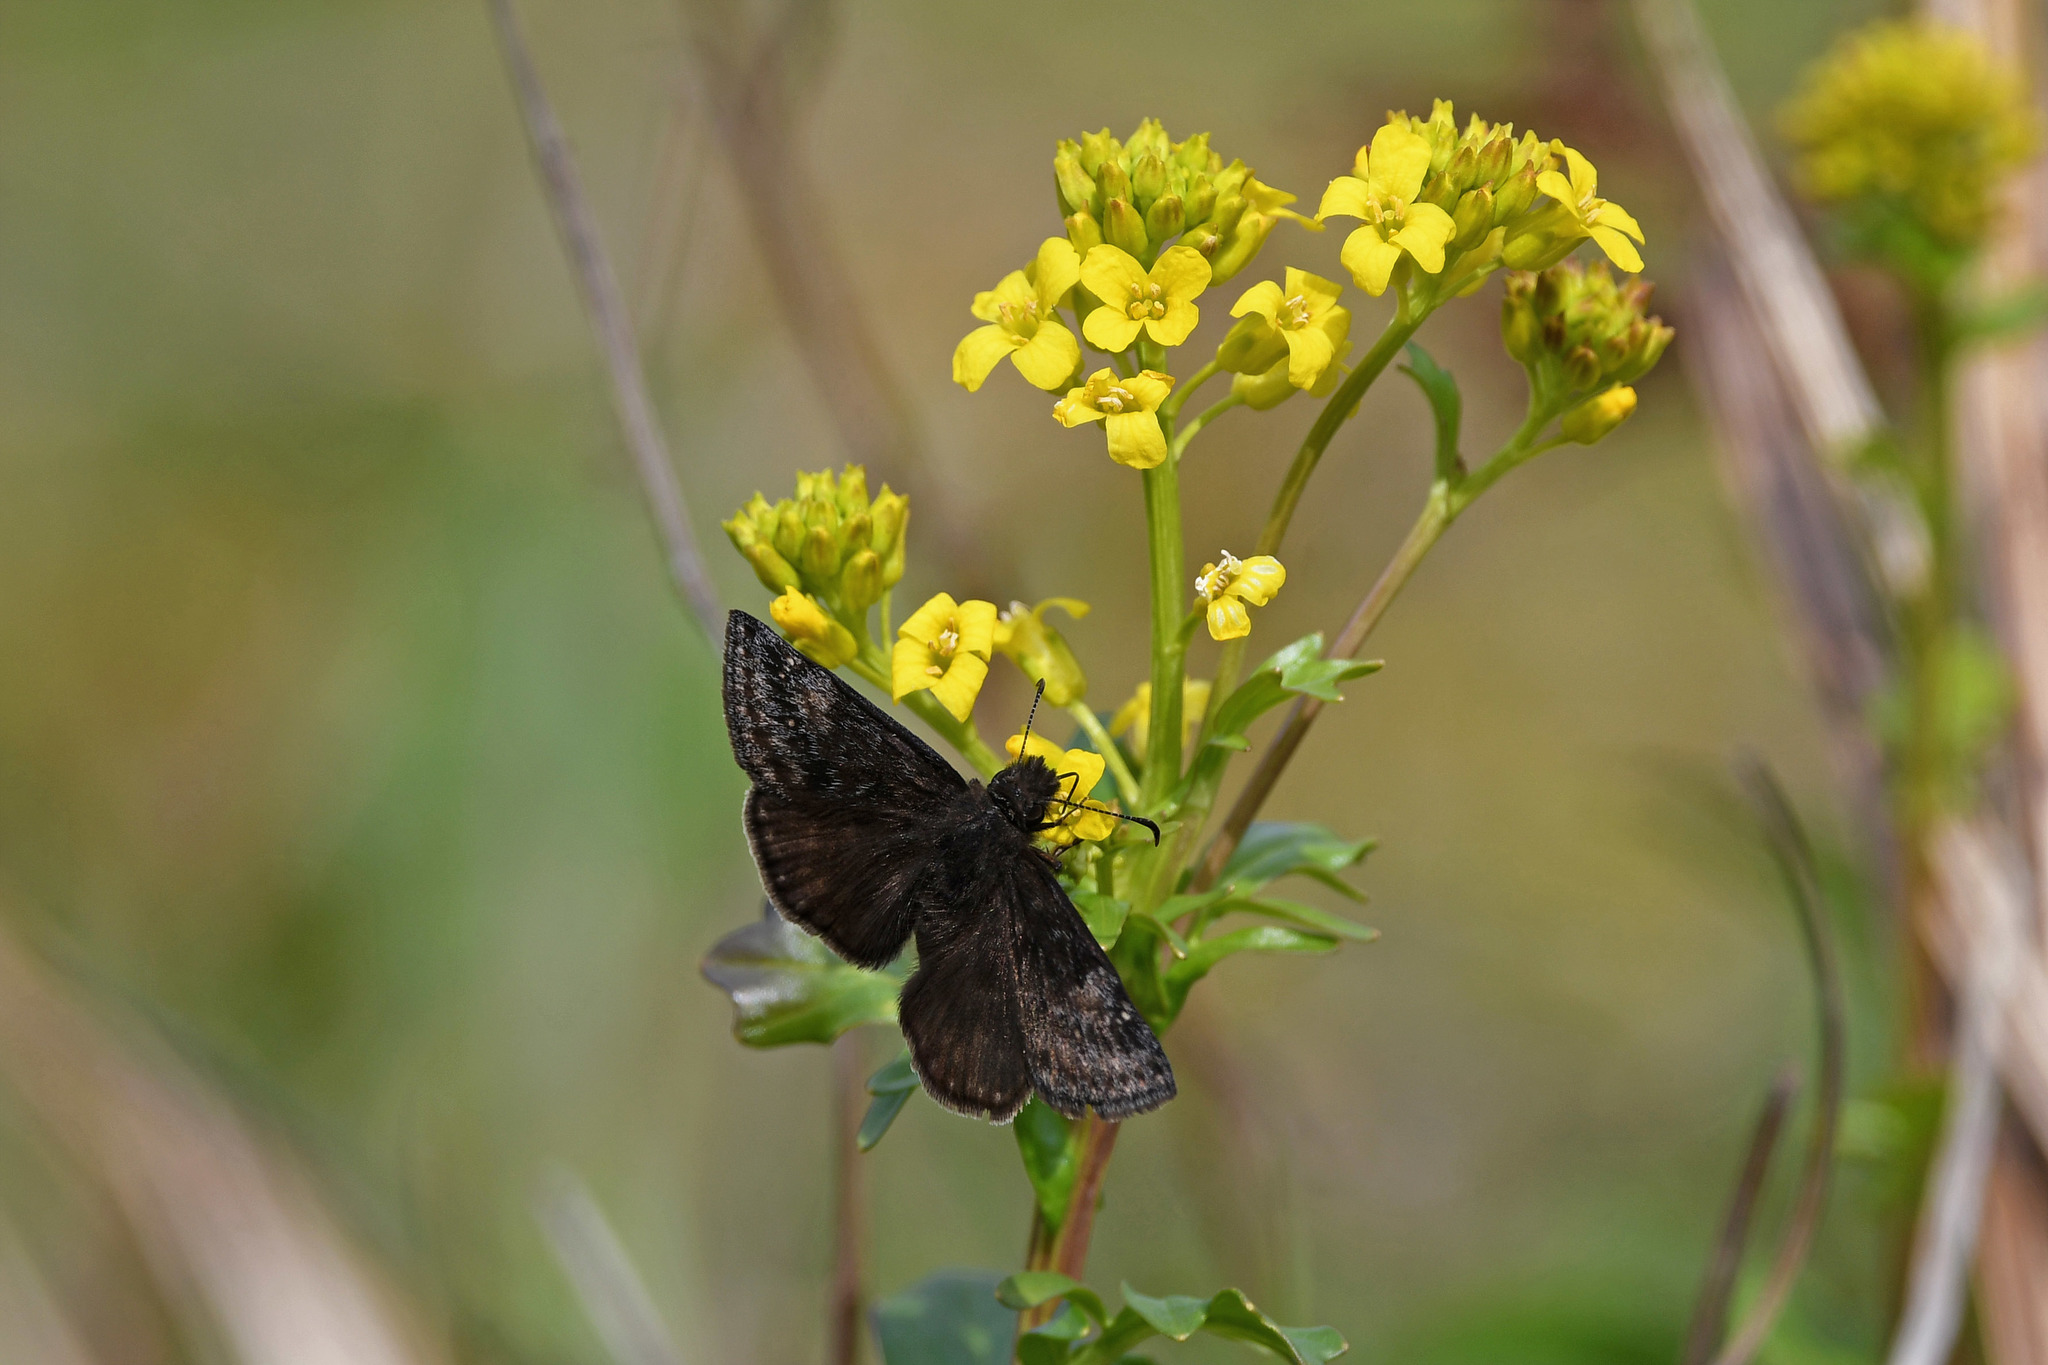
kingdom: Animalia
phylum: Arthropoda
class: Insecta
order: Lepidoptera
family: Hesperiidae
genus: Erynnis
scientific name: Erynnis baptisiae
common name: Wild indigo duskywing
